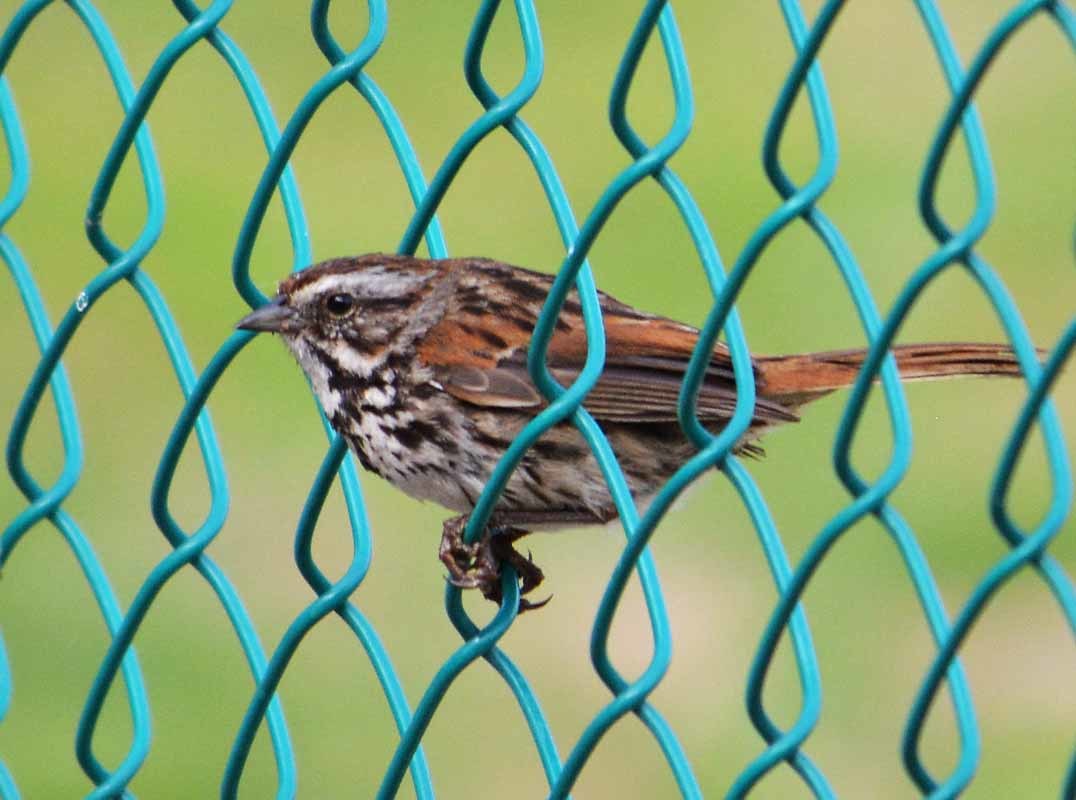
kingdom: Animalia
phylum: Chordata
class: Aves
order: Passeriformes
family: Passerellidae
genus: Melospiza
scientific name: Melospiza melodia
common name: Song sparrow
